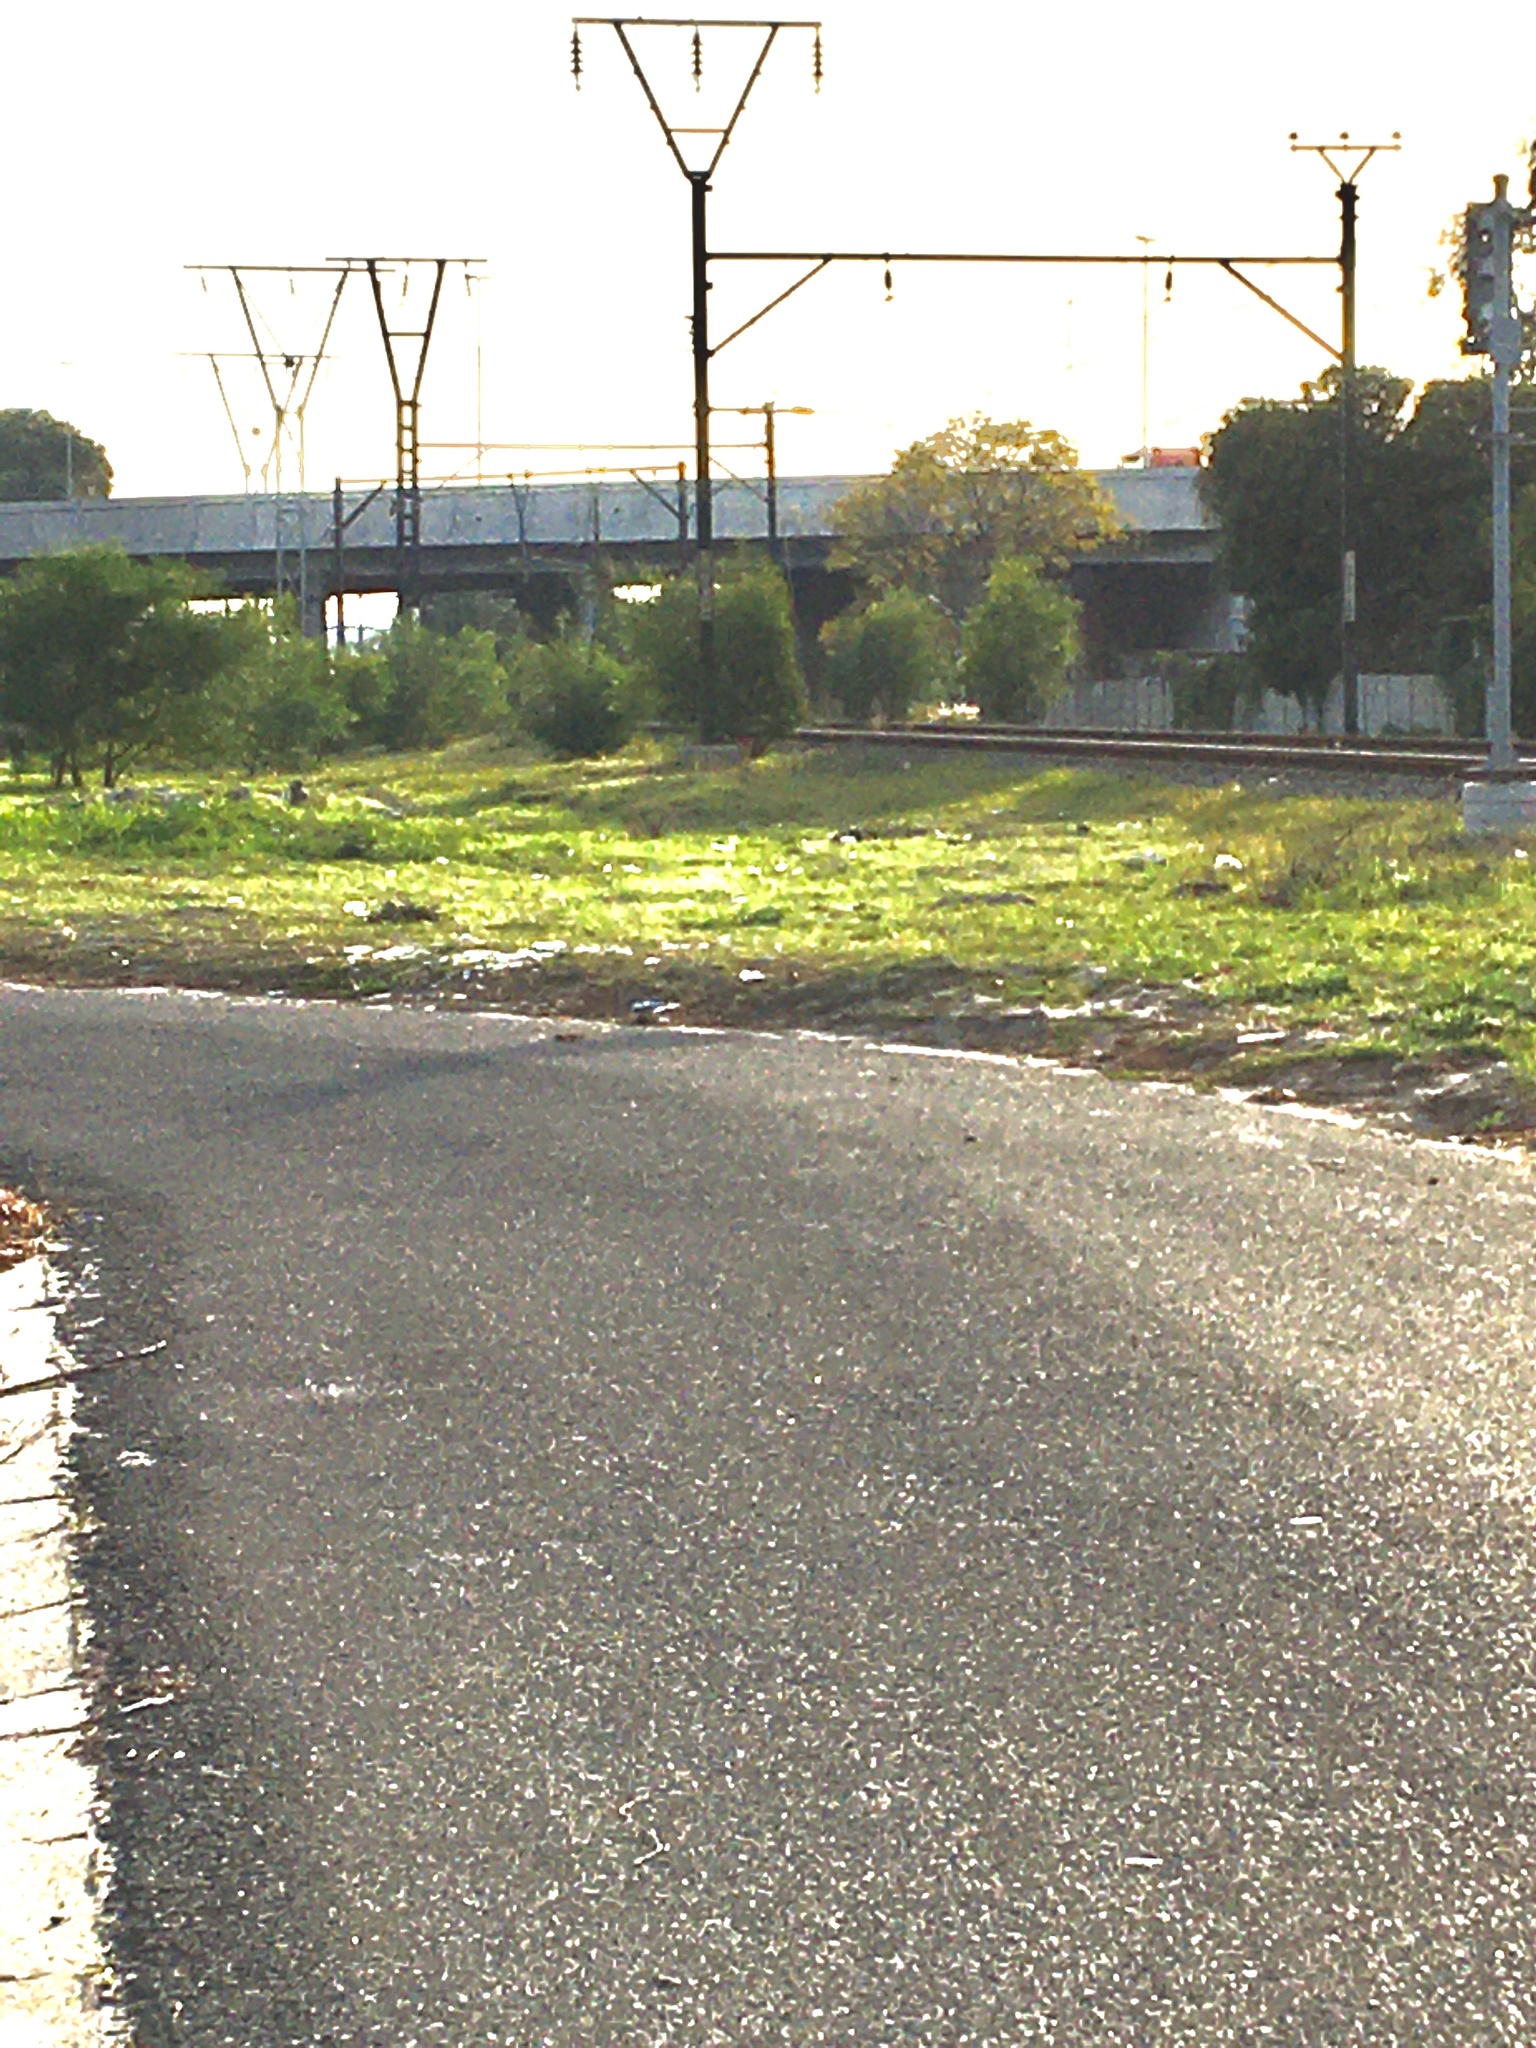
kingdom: Plantae
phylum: Tracheophyta
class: Magnoliopsida
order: Fabales
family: Fabaceae
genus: Acacia
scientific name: Acacia saligna
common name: Orange wattle
